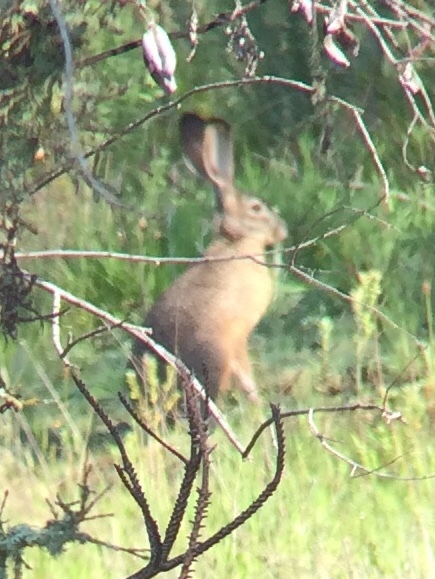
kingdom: Animalia
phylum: Chordata
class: Mammalia
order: Lagomorpha
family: Leporidae
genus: Lepus
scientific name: Lepus californicus
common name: Black-tailed jackrabbit
